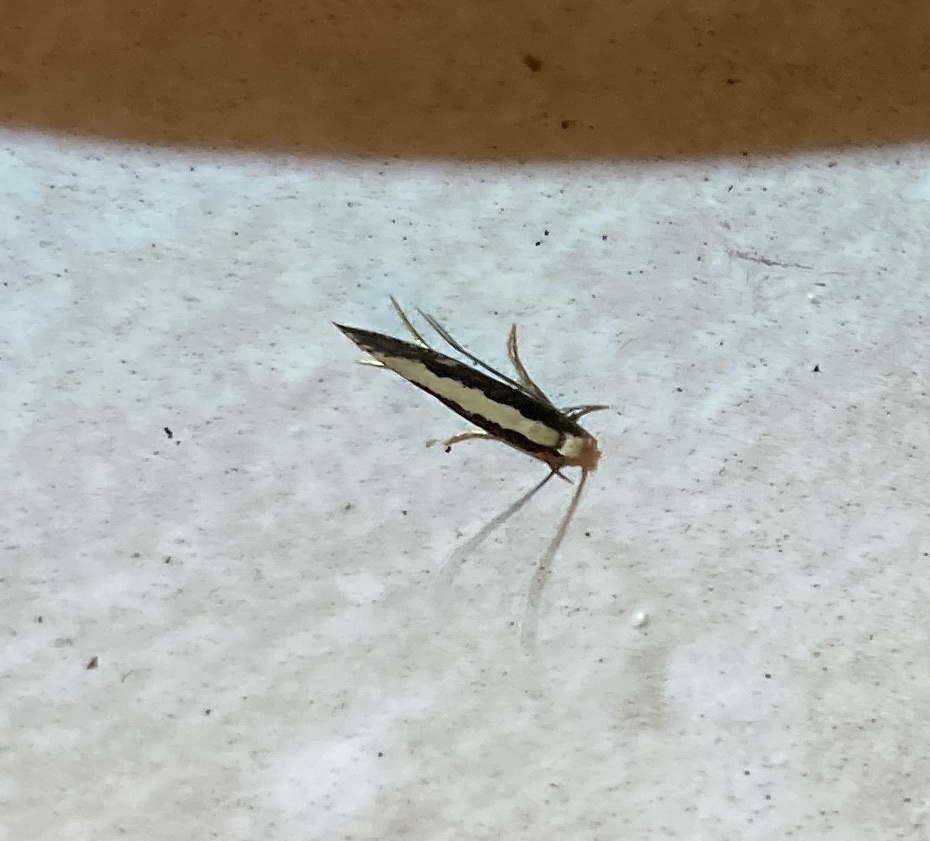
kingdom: Animalia
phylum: Arthropoda
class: Insecta
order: Lepidoptera
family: Tineidae
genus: Monopis
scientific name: Monopis ethelella
